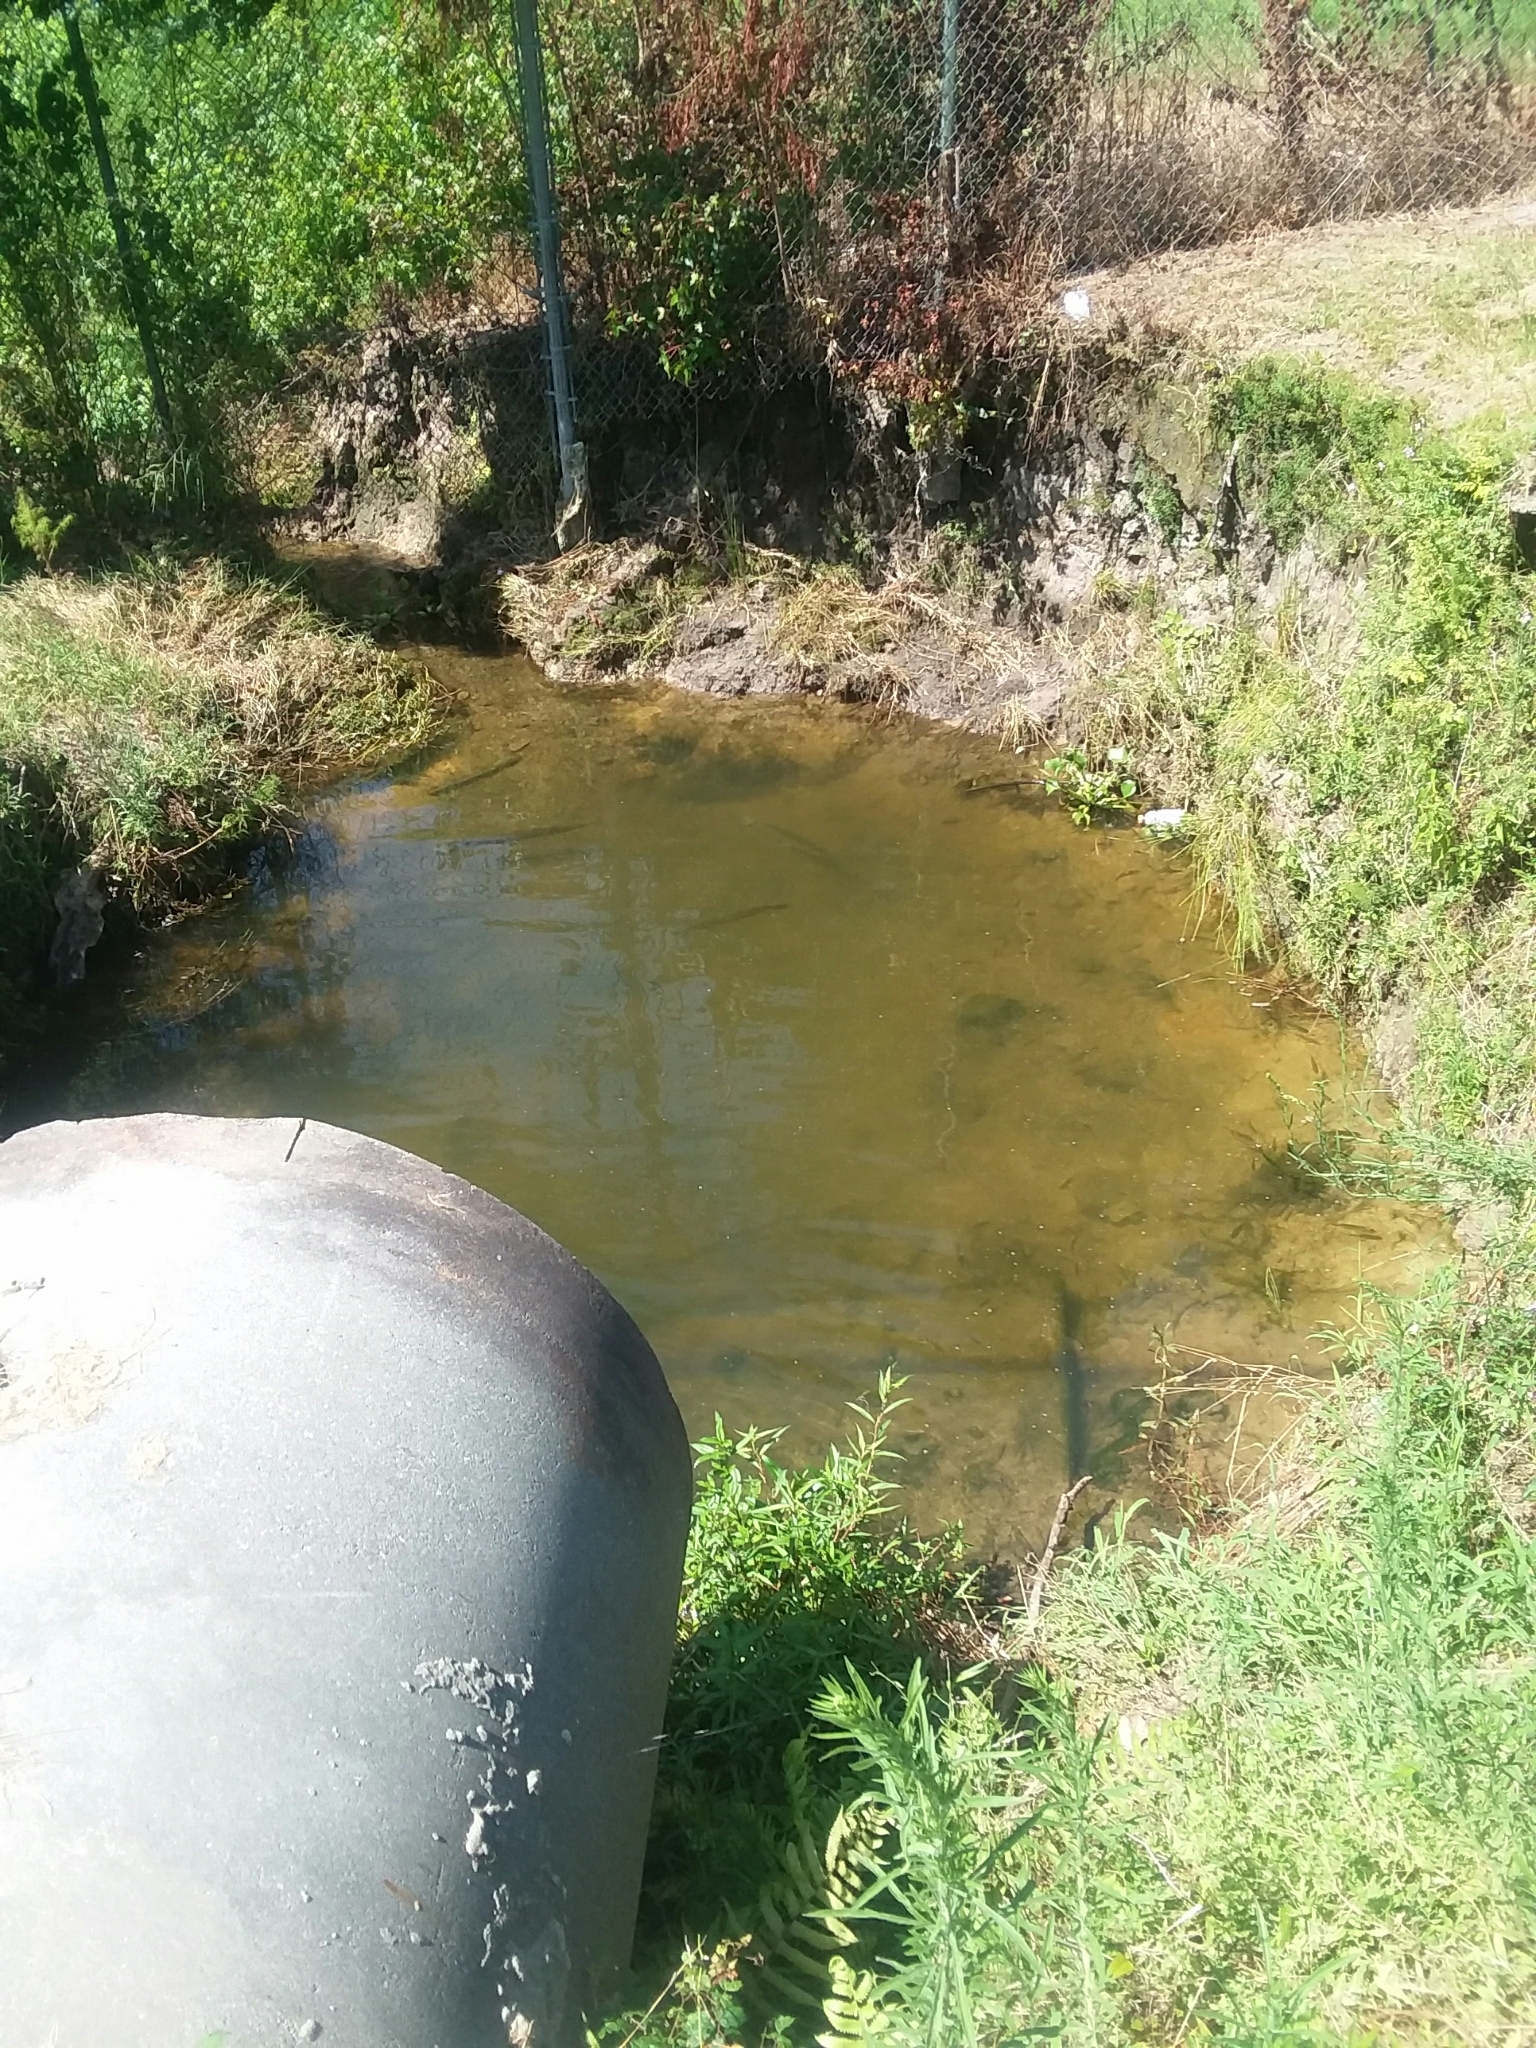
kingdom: Animalia
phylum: Chordata
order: Lepisosteiformes
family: Lepisosteidae
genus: Lepisosteus
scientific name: Lepisosteus platyrhincus
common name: Florida gar
